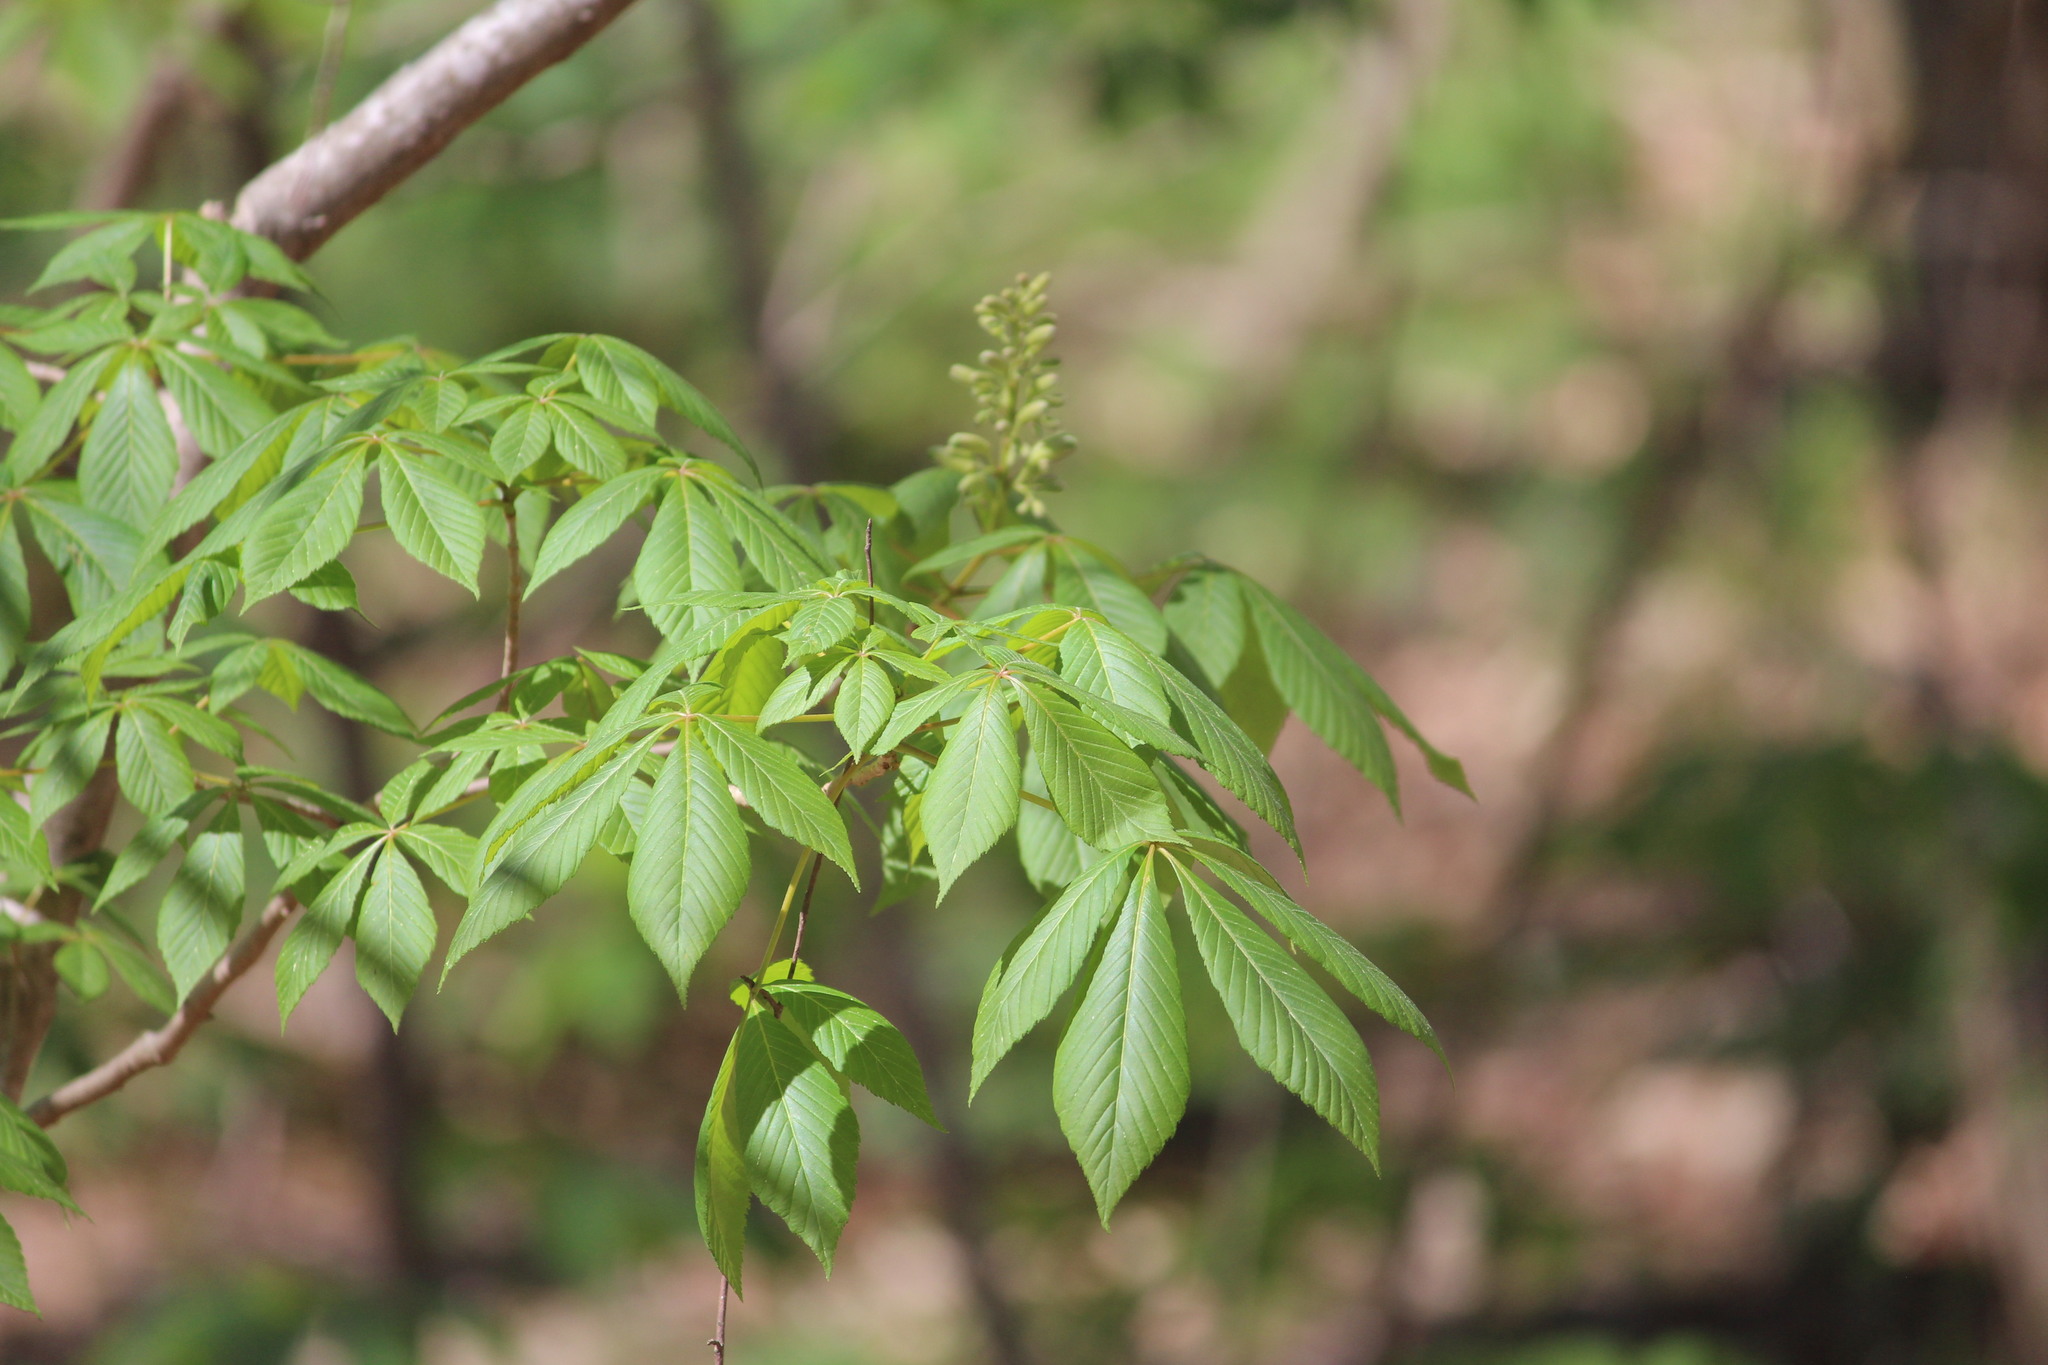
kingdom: Plantae
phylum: Tracheophyta
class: Magnoliopsida
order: Sapindales
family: Sapindaceae
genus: Aesculus
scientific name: Aesculus sylvatica
